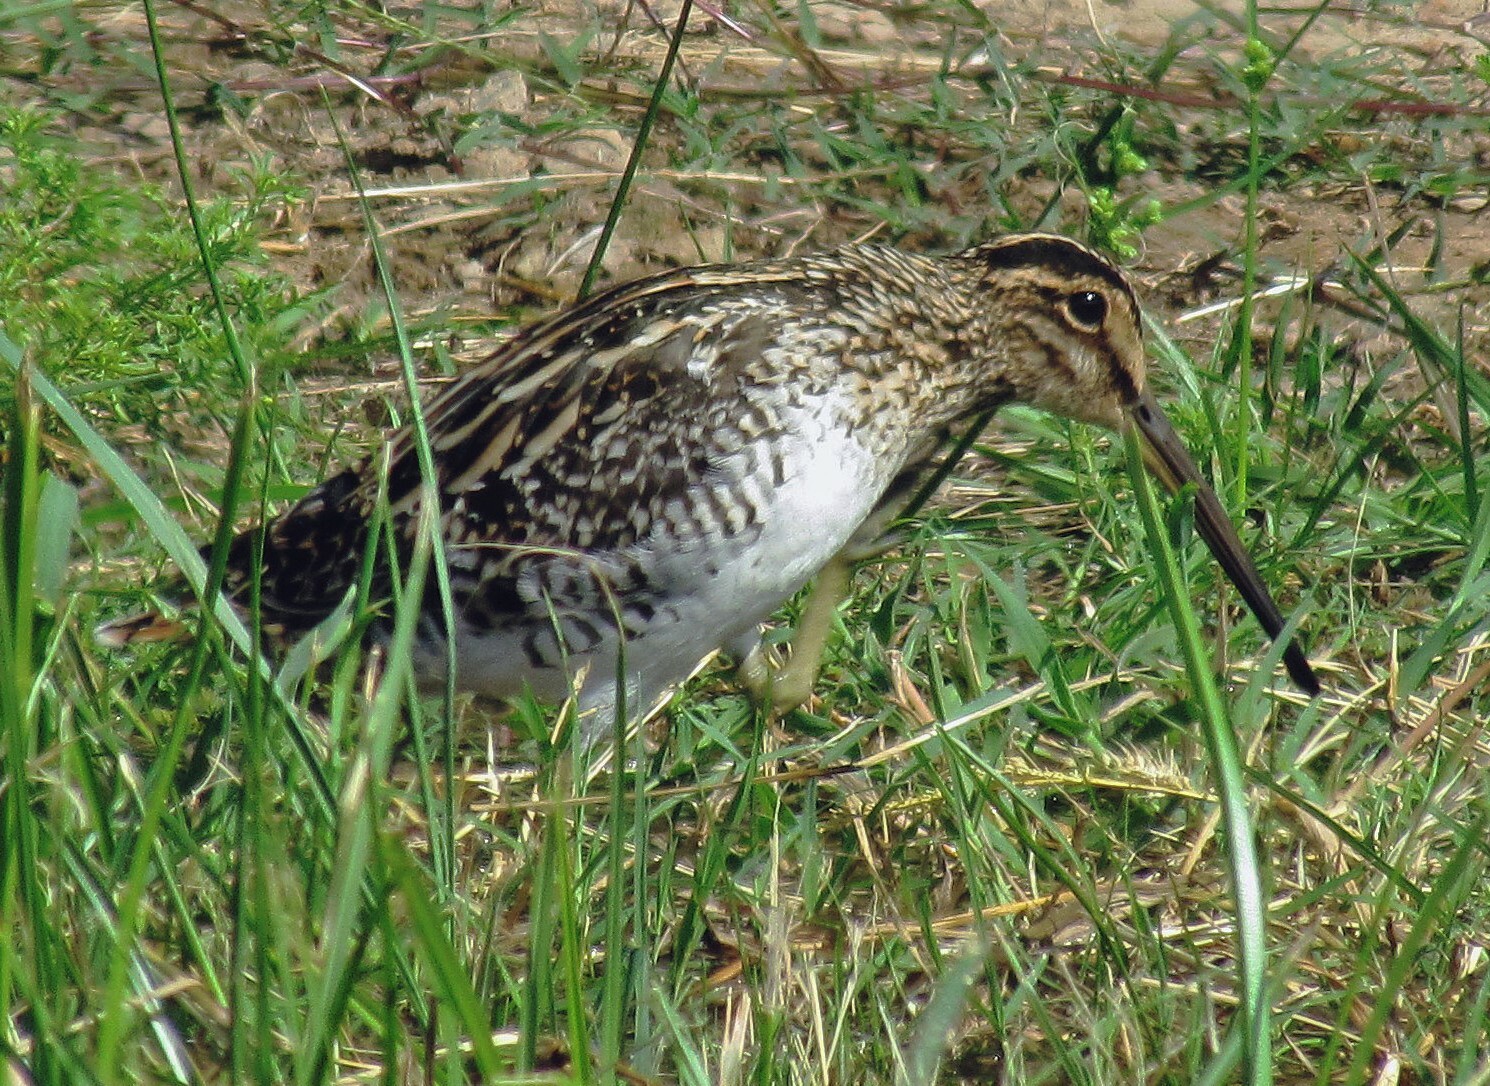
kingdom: Animalia
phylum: Chordata
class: Aves
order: Charadriiformes
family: Scolopacidae
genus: Gallinago
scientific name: Gallinago paraguaiae
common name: South american snipe
